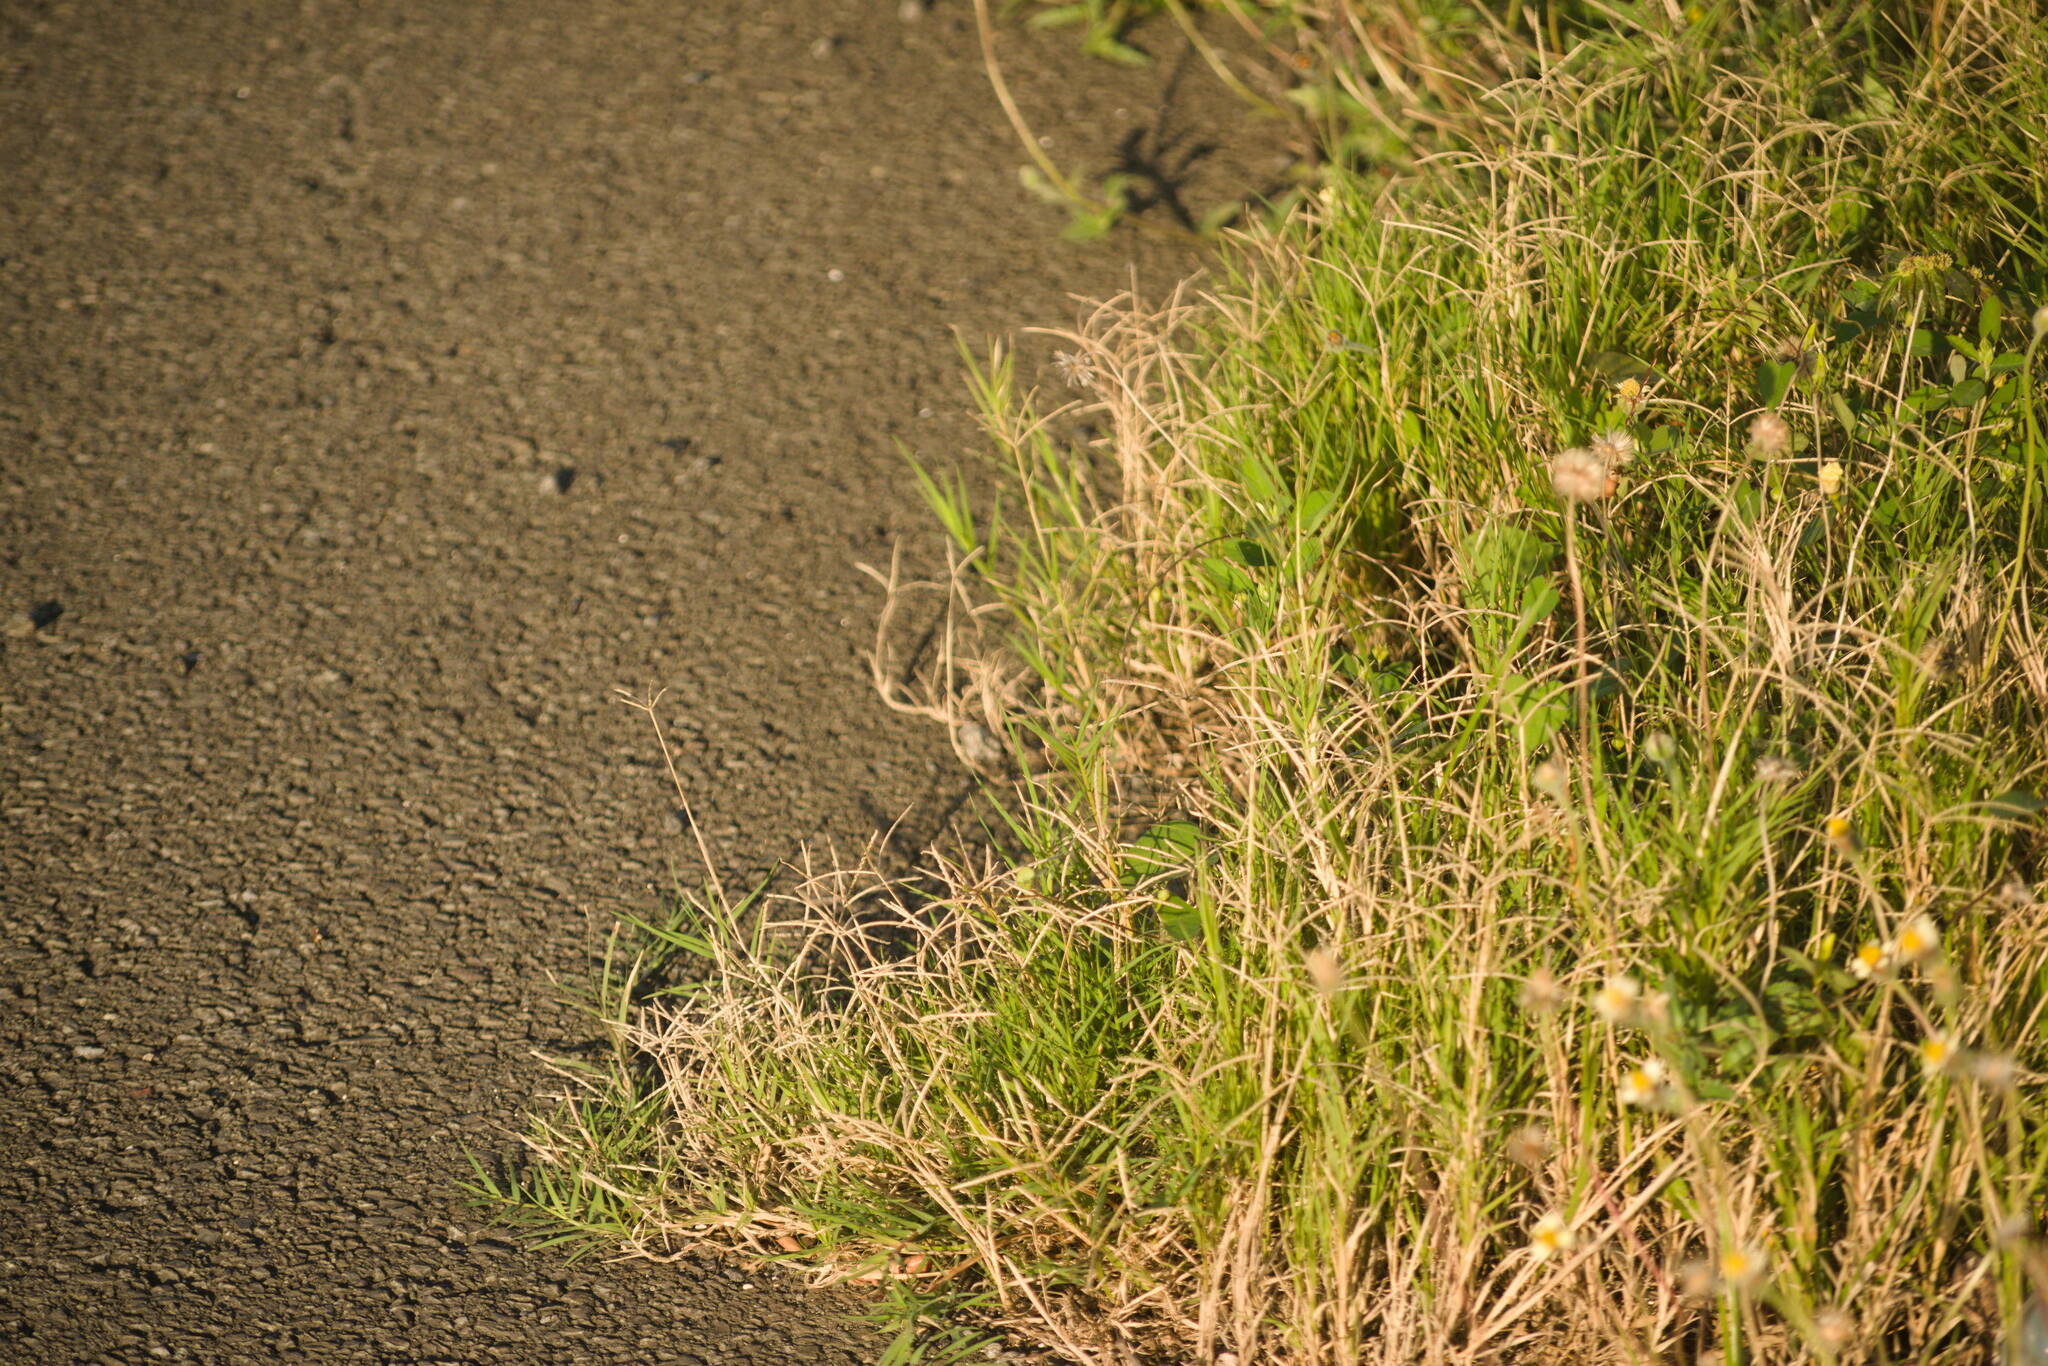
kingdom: Plantae
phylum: Tracheophyta
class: Liliopsida
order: Poales
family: Poaceae
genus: Cynodon
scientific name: Cynodon dactylon
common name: Bermuda grass
